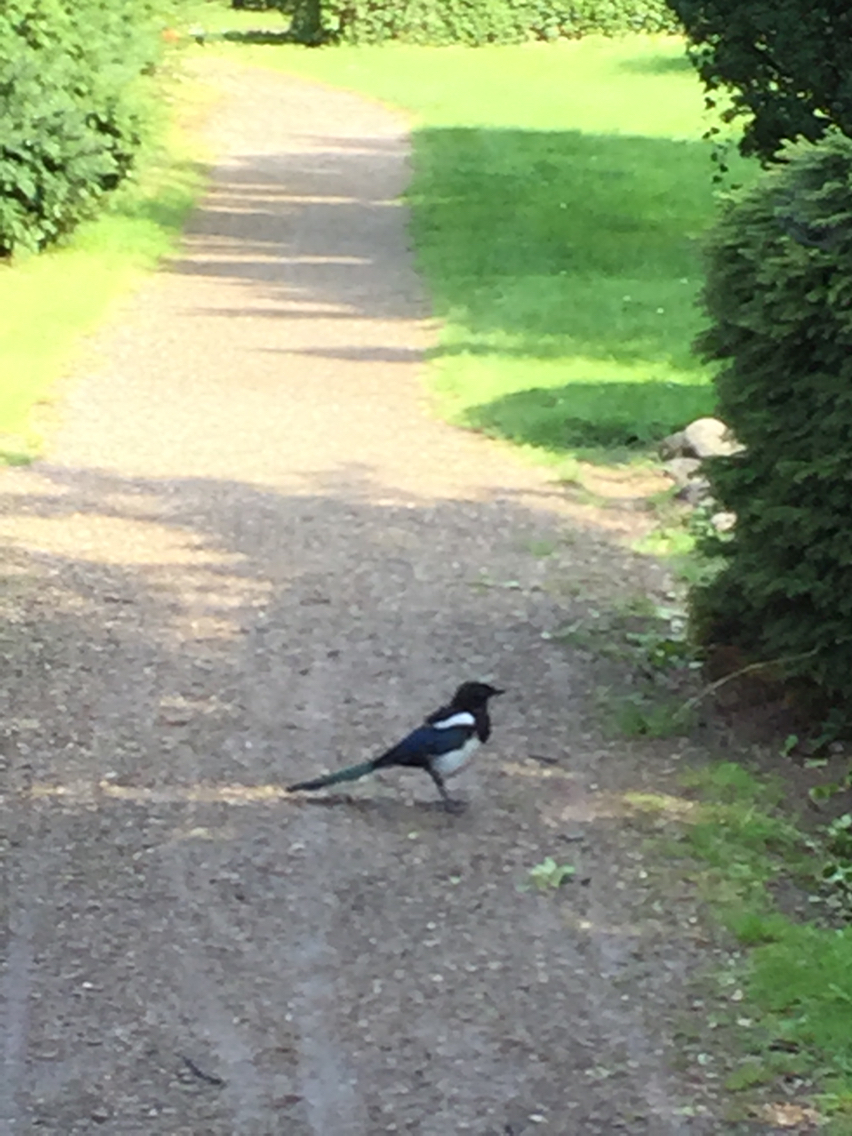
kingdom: Animalia
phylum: Chordata
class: Aves
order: Passeriformes
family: Corvidae
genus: Pica
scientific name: Pica pica
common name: Eurasian magpie
